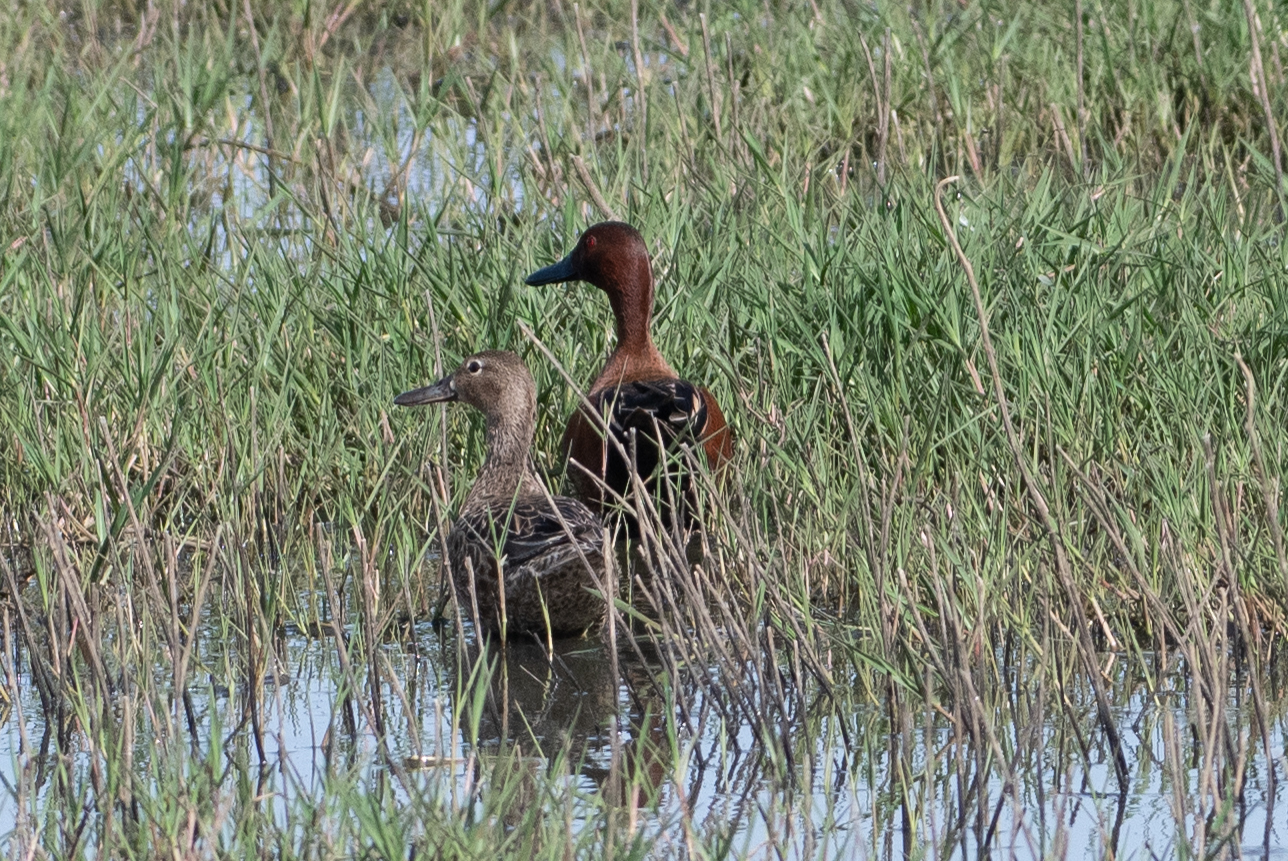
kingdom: Animalia
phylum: Chordata
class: Aves
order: Anseriformes
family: Anatidae
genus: Spatula
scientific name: Spatula cyanoptera
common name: Cinnamon teal
